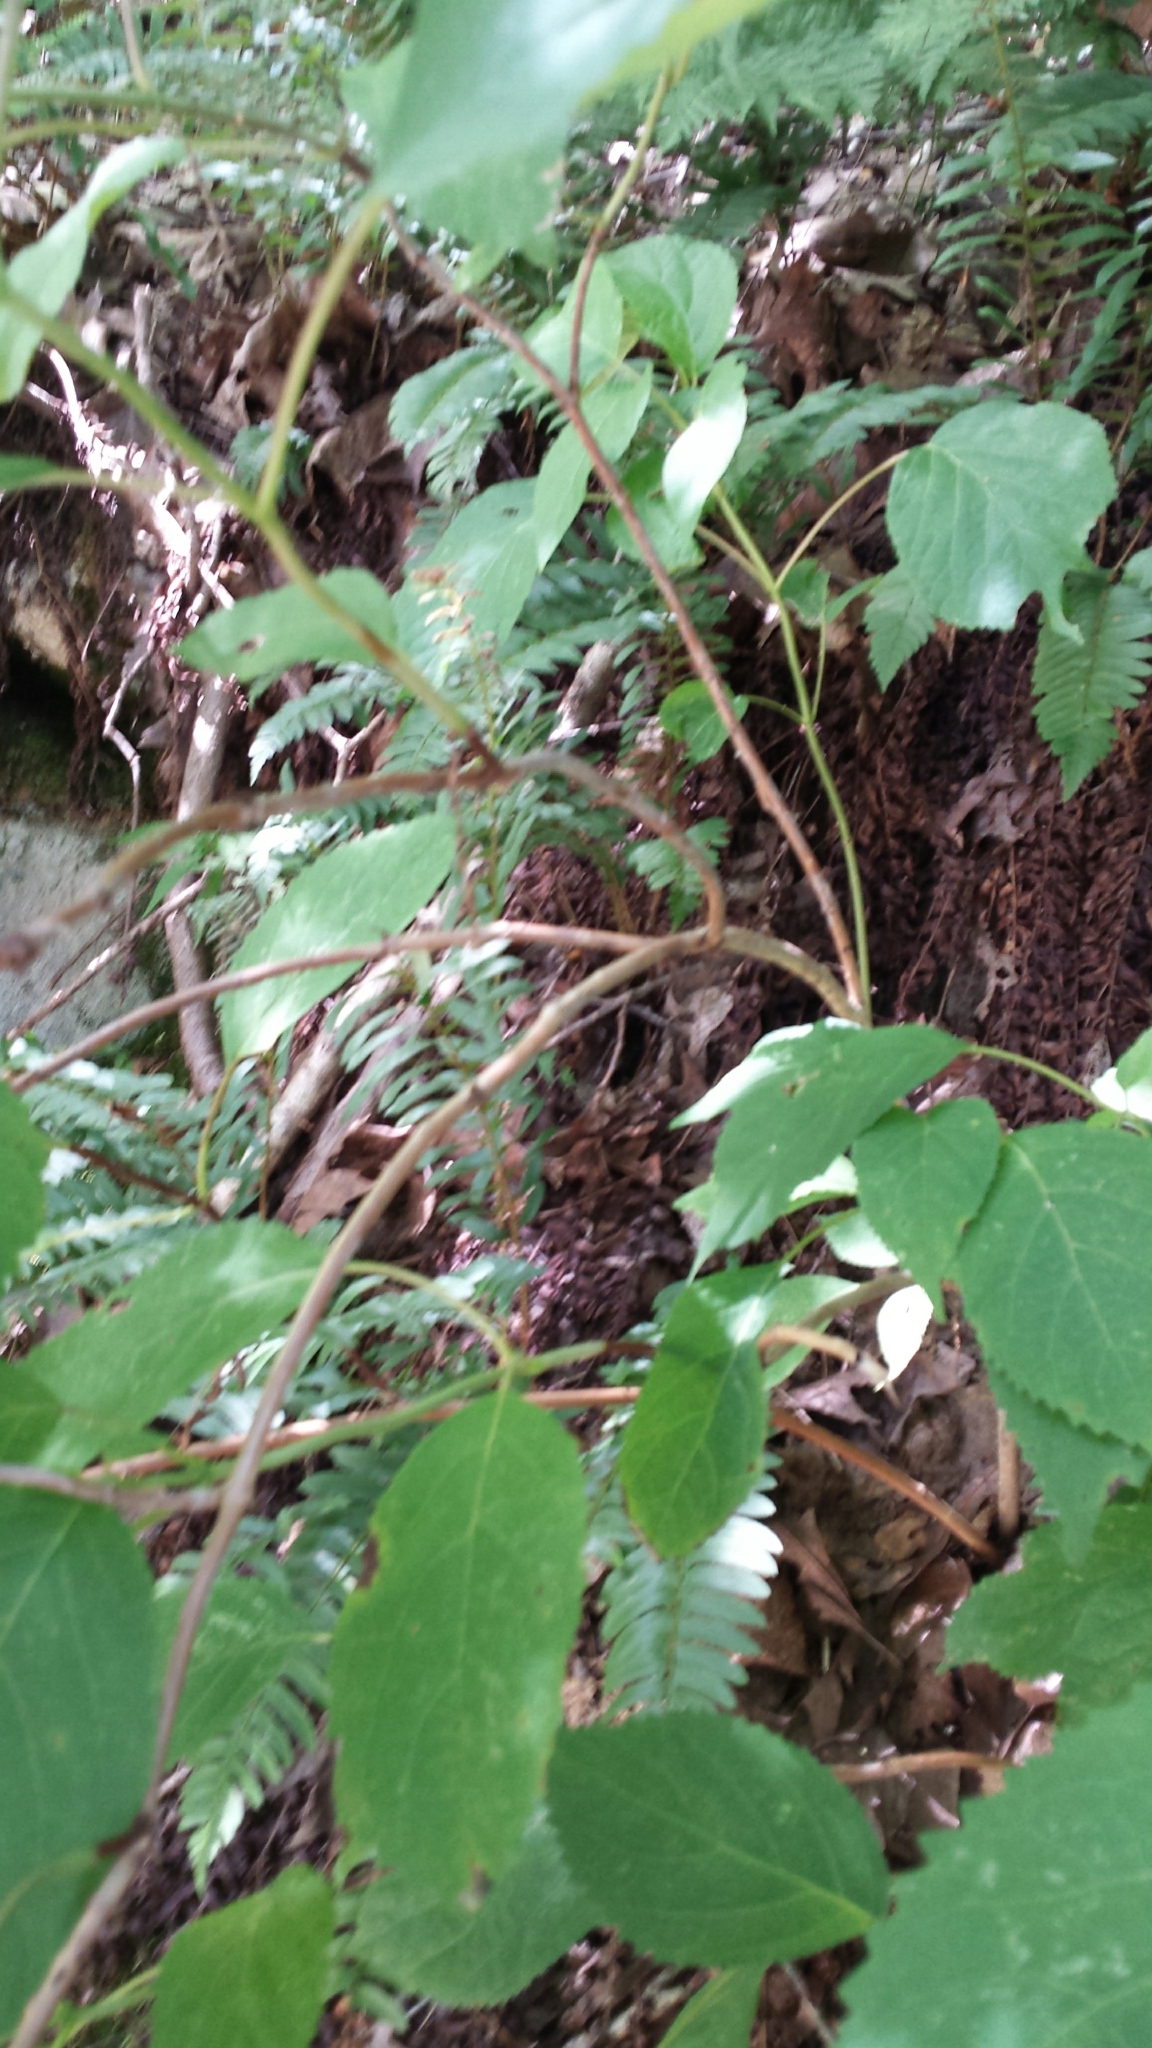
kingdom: Plantae
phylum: Tracheophyta
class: Magnoliopsida
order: Cornales
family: Hydrangeaceae
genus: Hydrangea
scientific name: Hydrangea arborescens
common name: Sevenbark
